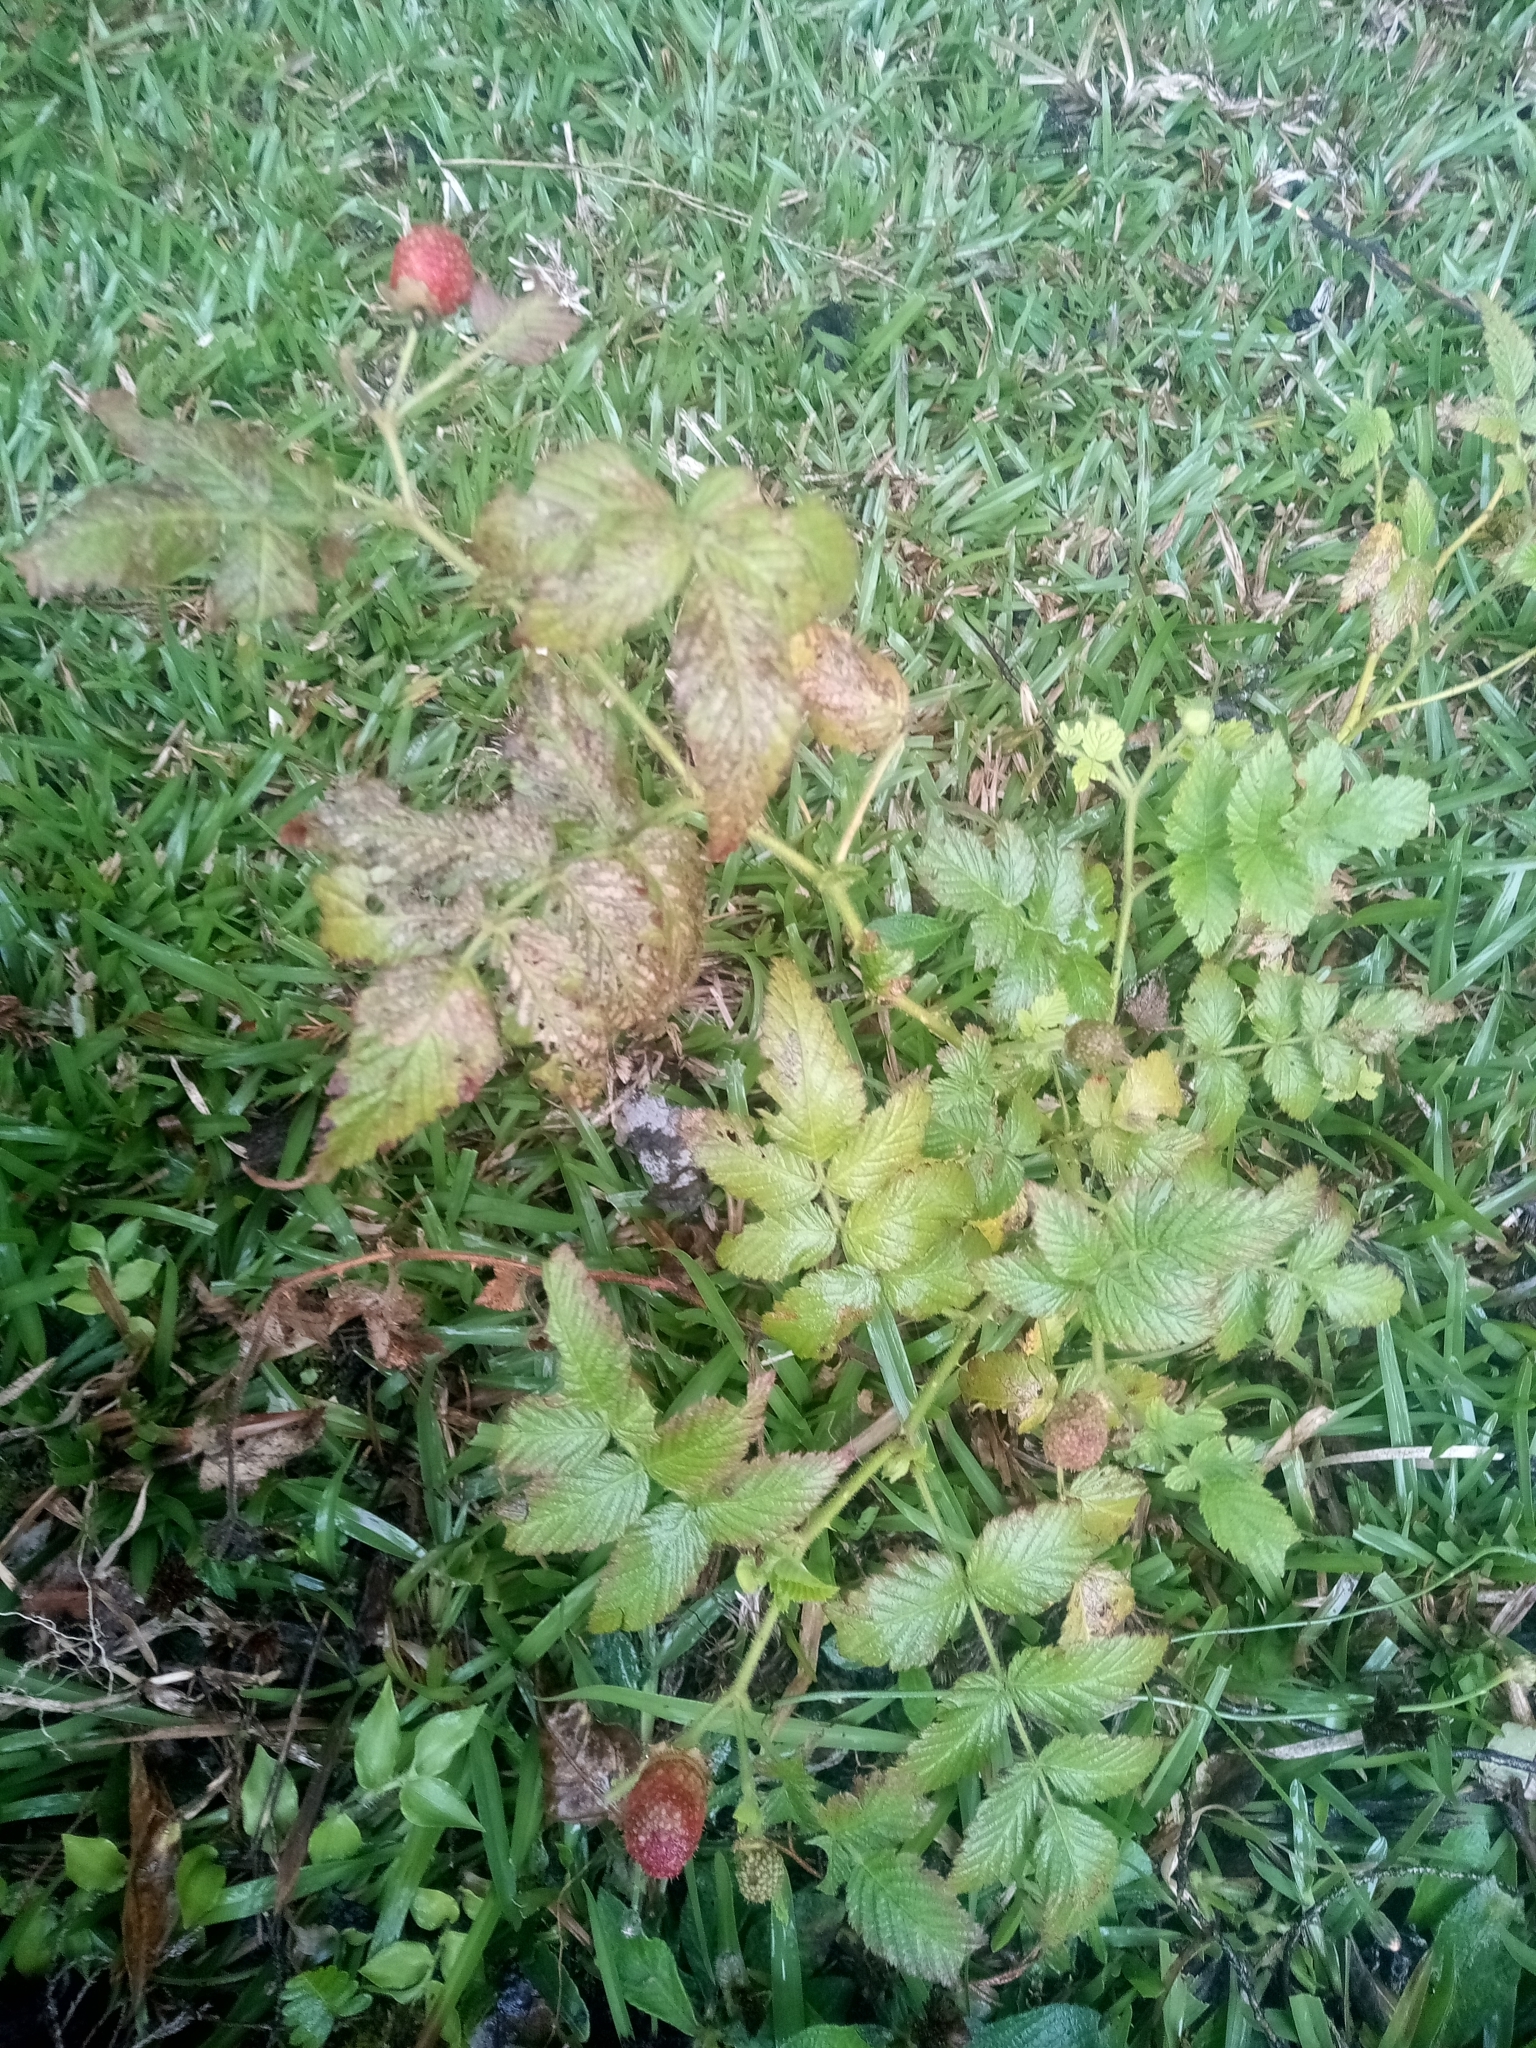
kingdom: Plantae
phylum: Tracheophyta
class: Magnoliopsida
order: Rosales
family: Rosaceae
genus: Rubus
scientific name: Rubus rosifolius
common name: Roseleaf raspberry
